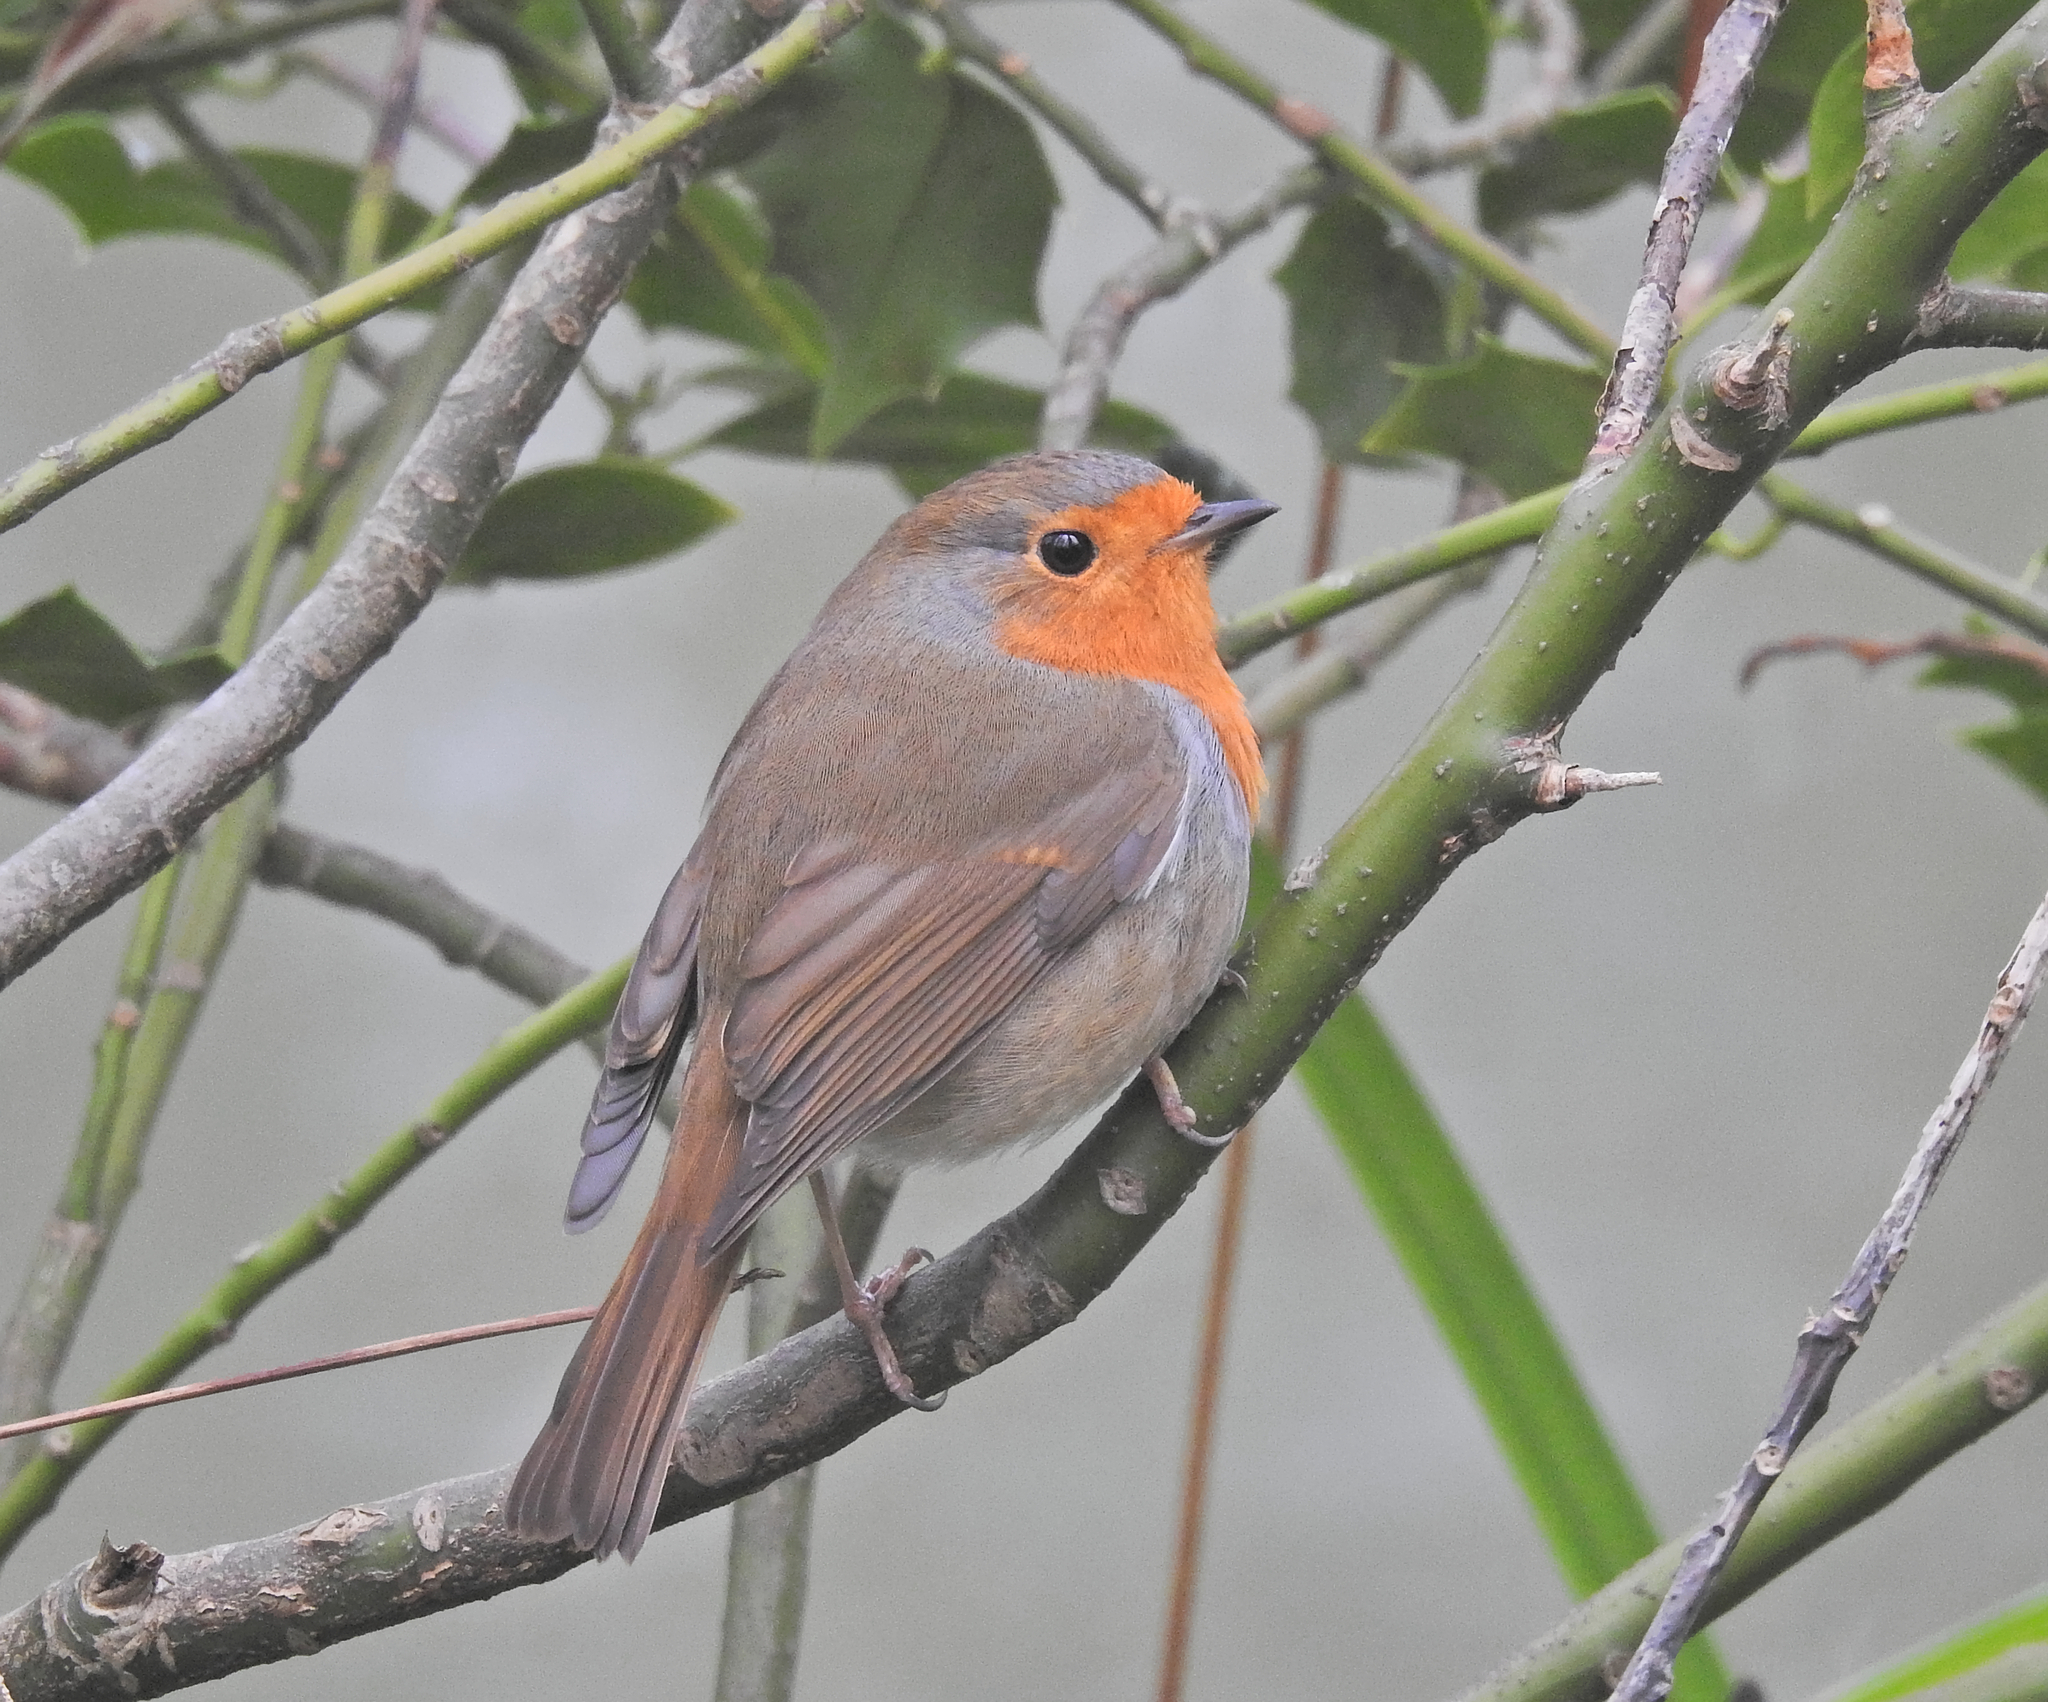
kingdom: Animalia
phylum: Chordata
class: Aves
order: Passeriformes
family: Muscicapidae
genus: Erithacus
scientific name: Erithacus rubecula
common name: European robin
